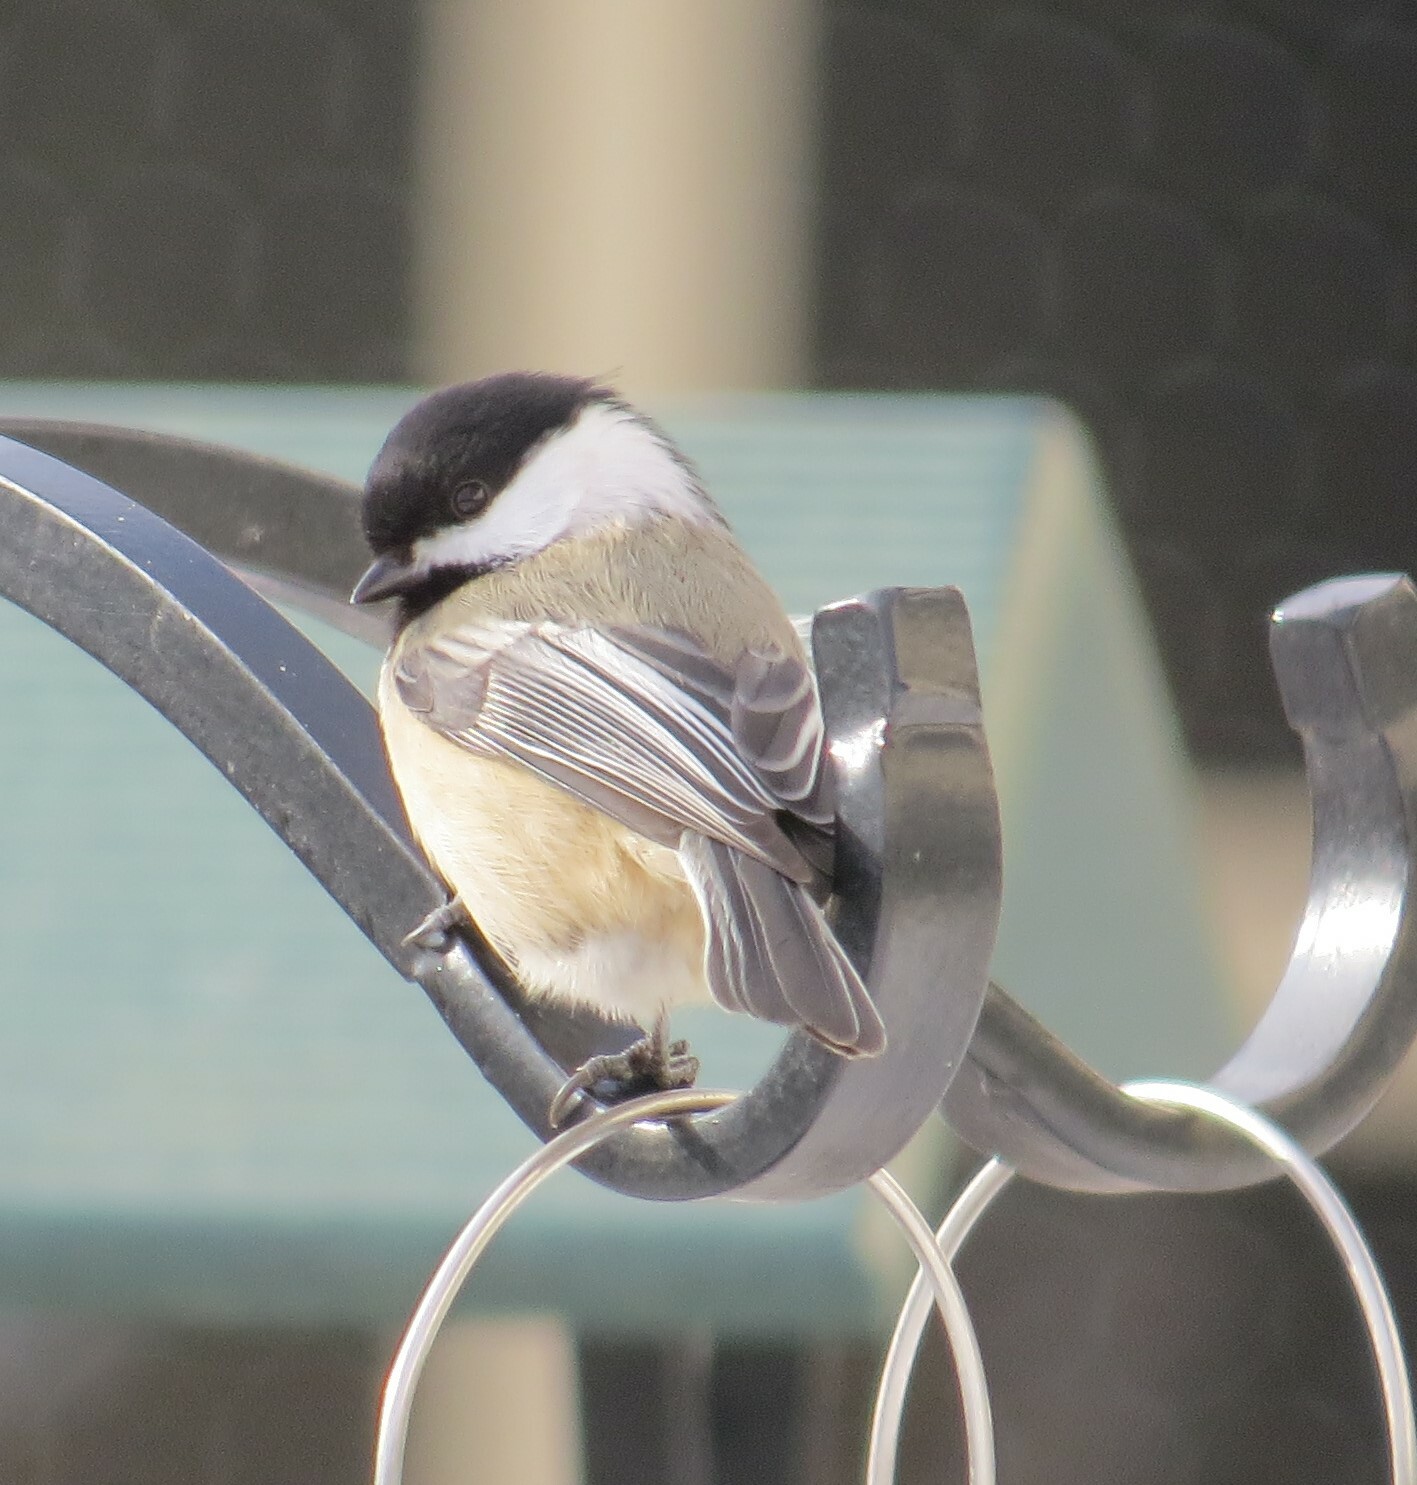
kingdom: Animalia
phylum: Chordata
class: Aves
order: Passeriformes
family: Paridae
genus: Poecile
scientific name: Poecile atricapillus
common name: Black-capped chickadee
